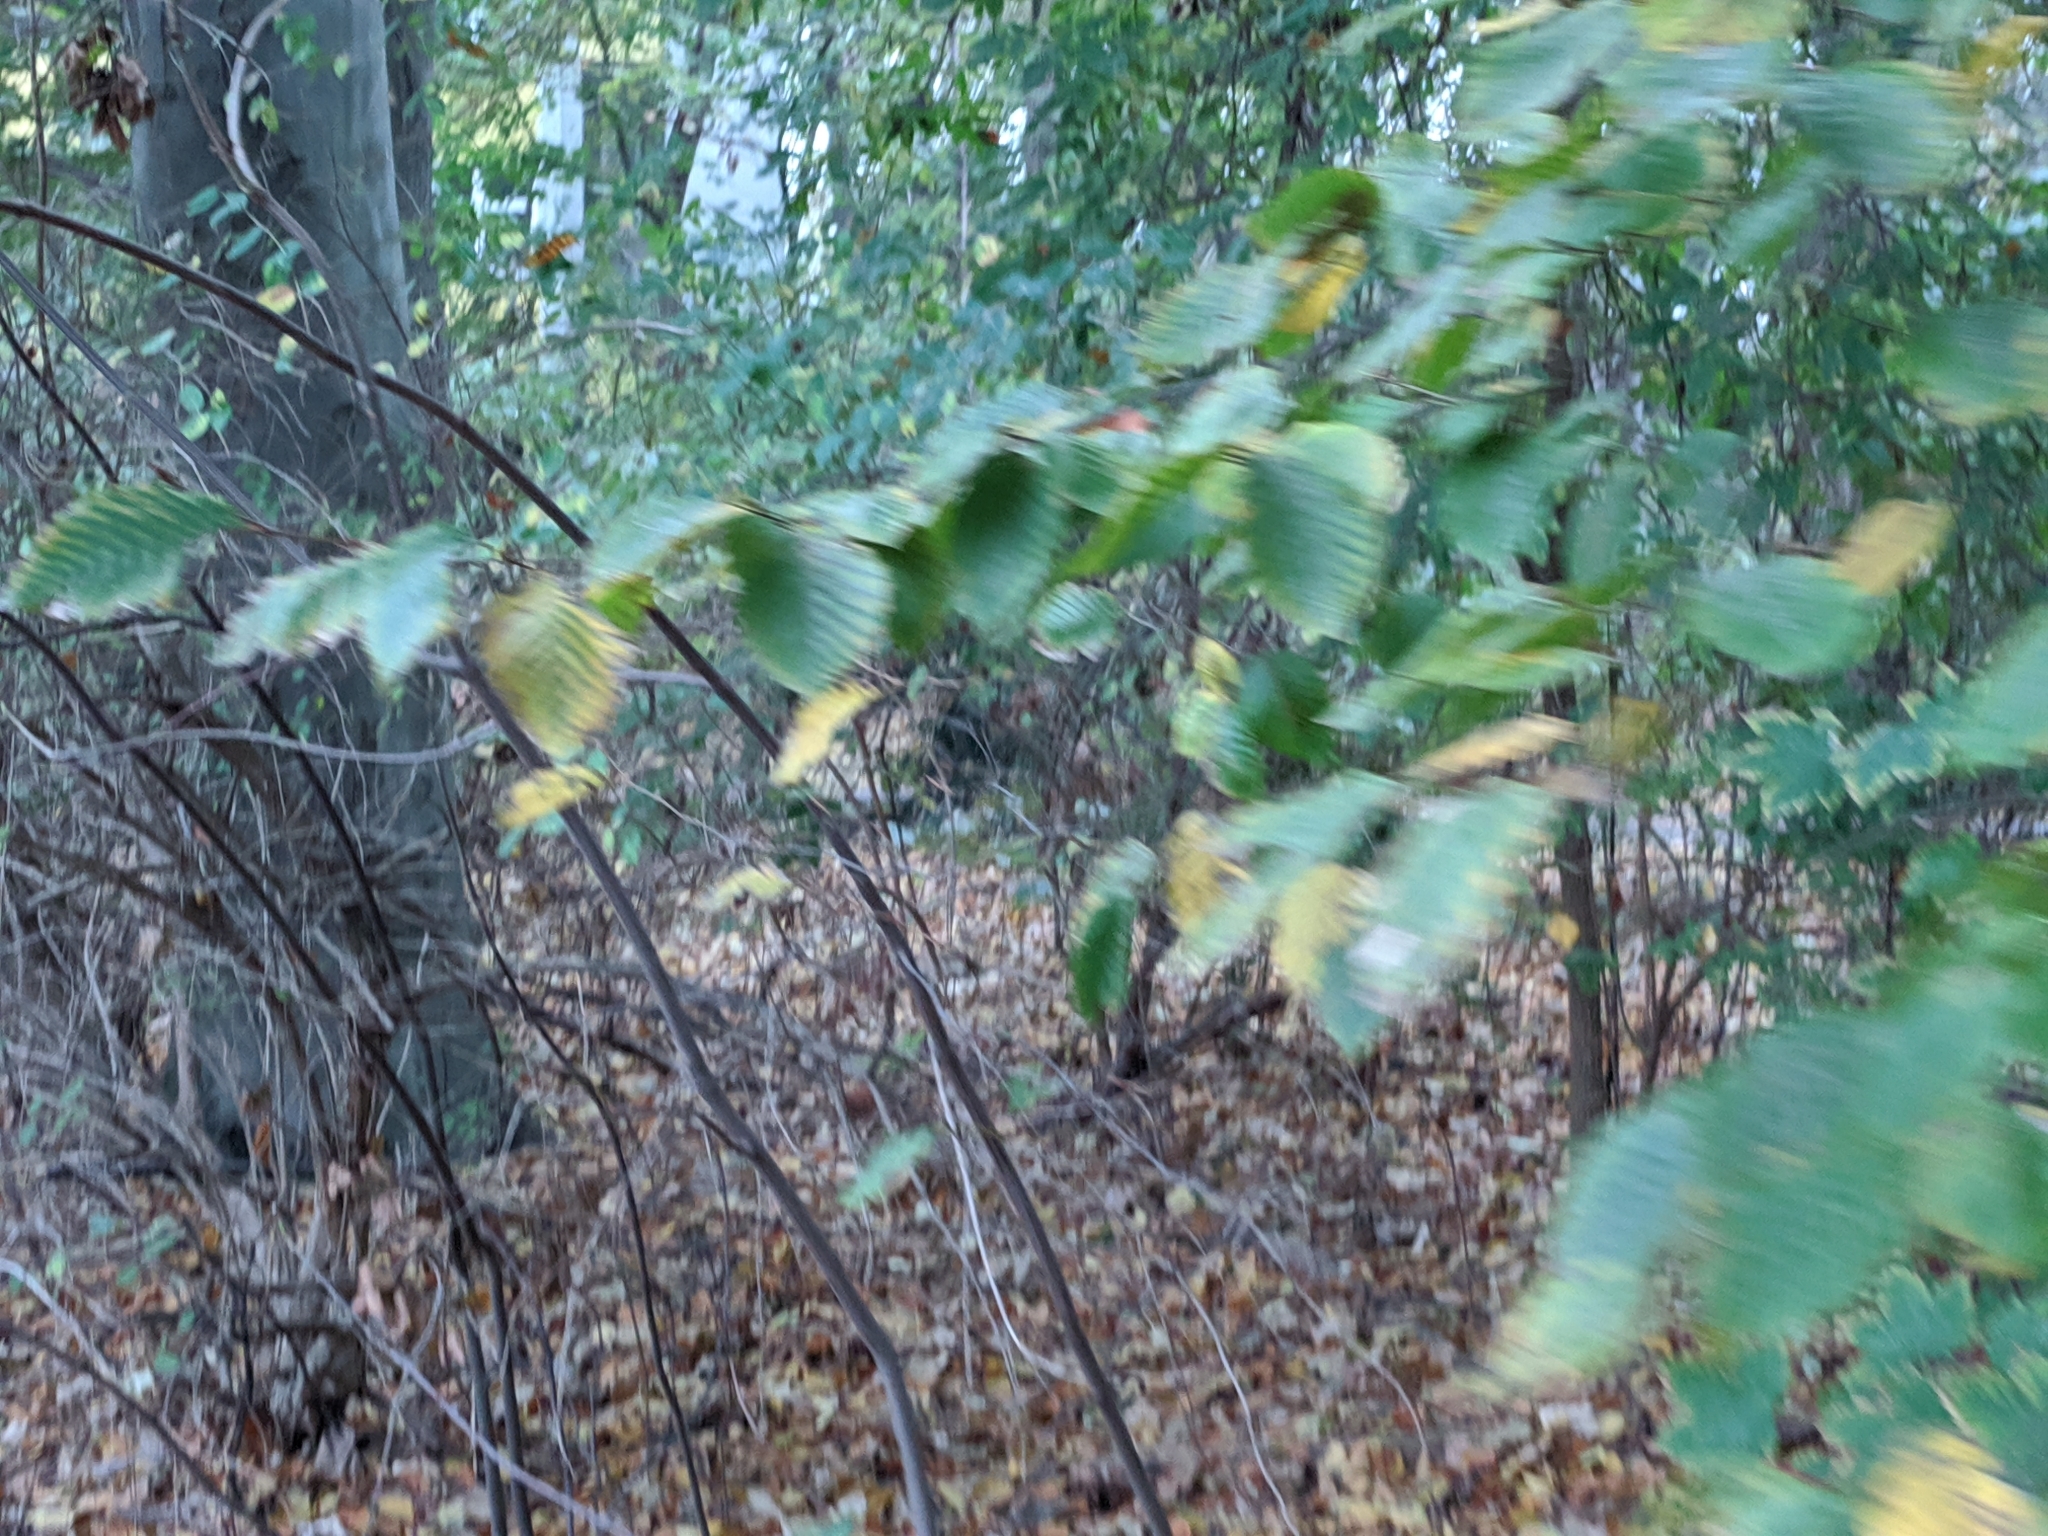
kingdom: Animalia
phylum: Chordata
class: Mammalia
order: Rodentia
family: Sciuridae
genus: Sciurus
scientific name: Sciurus vulgaris
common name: Eurasian red squirrel
